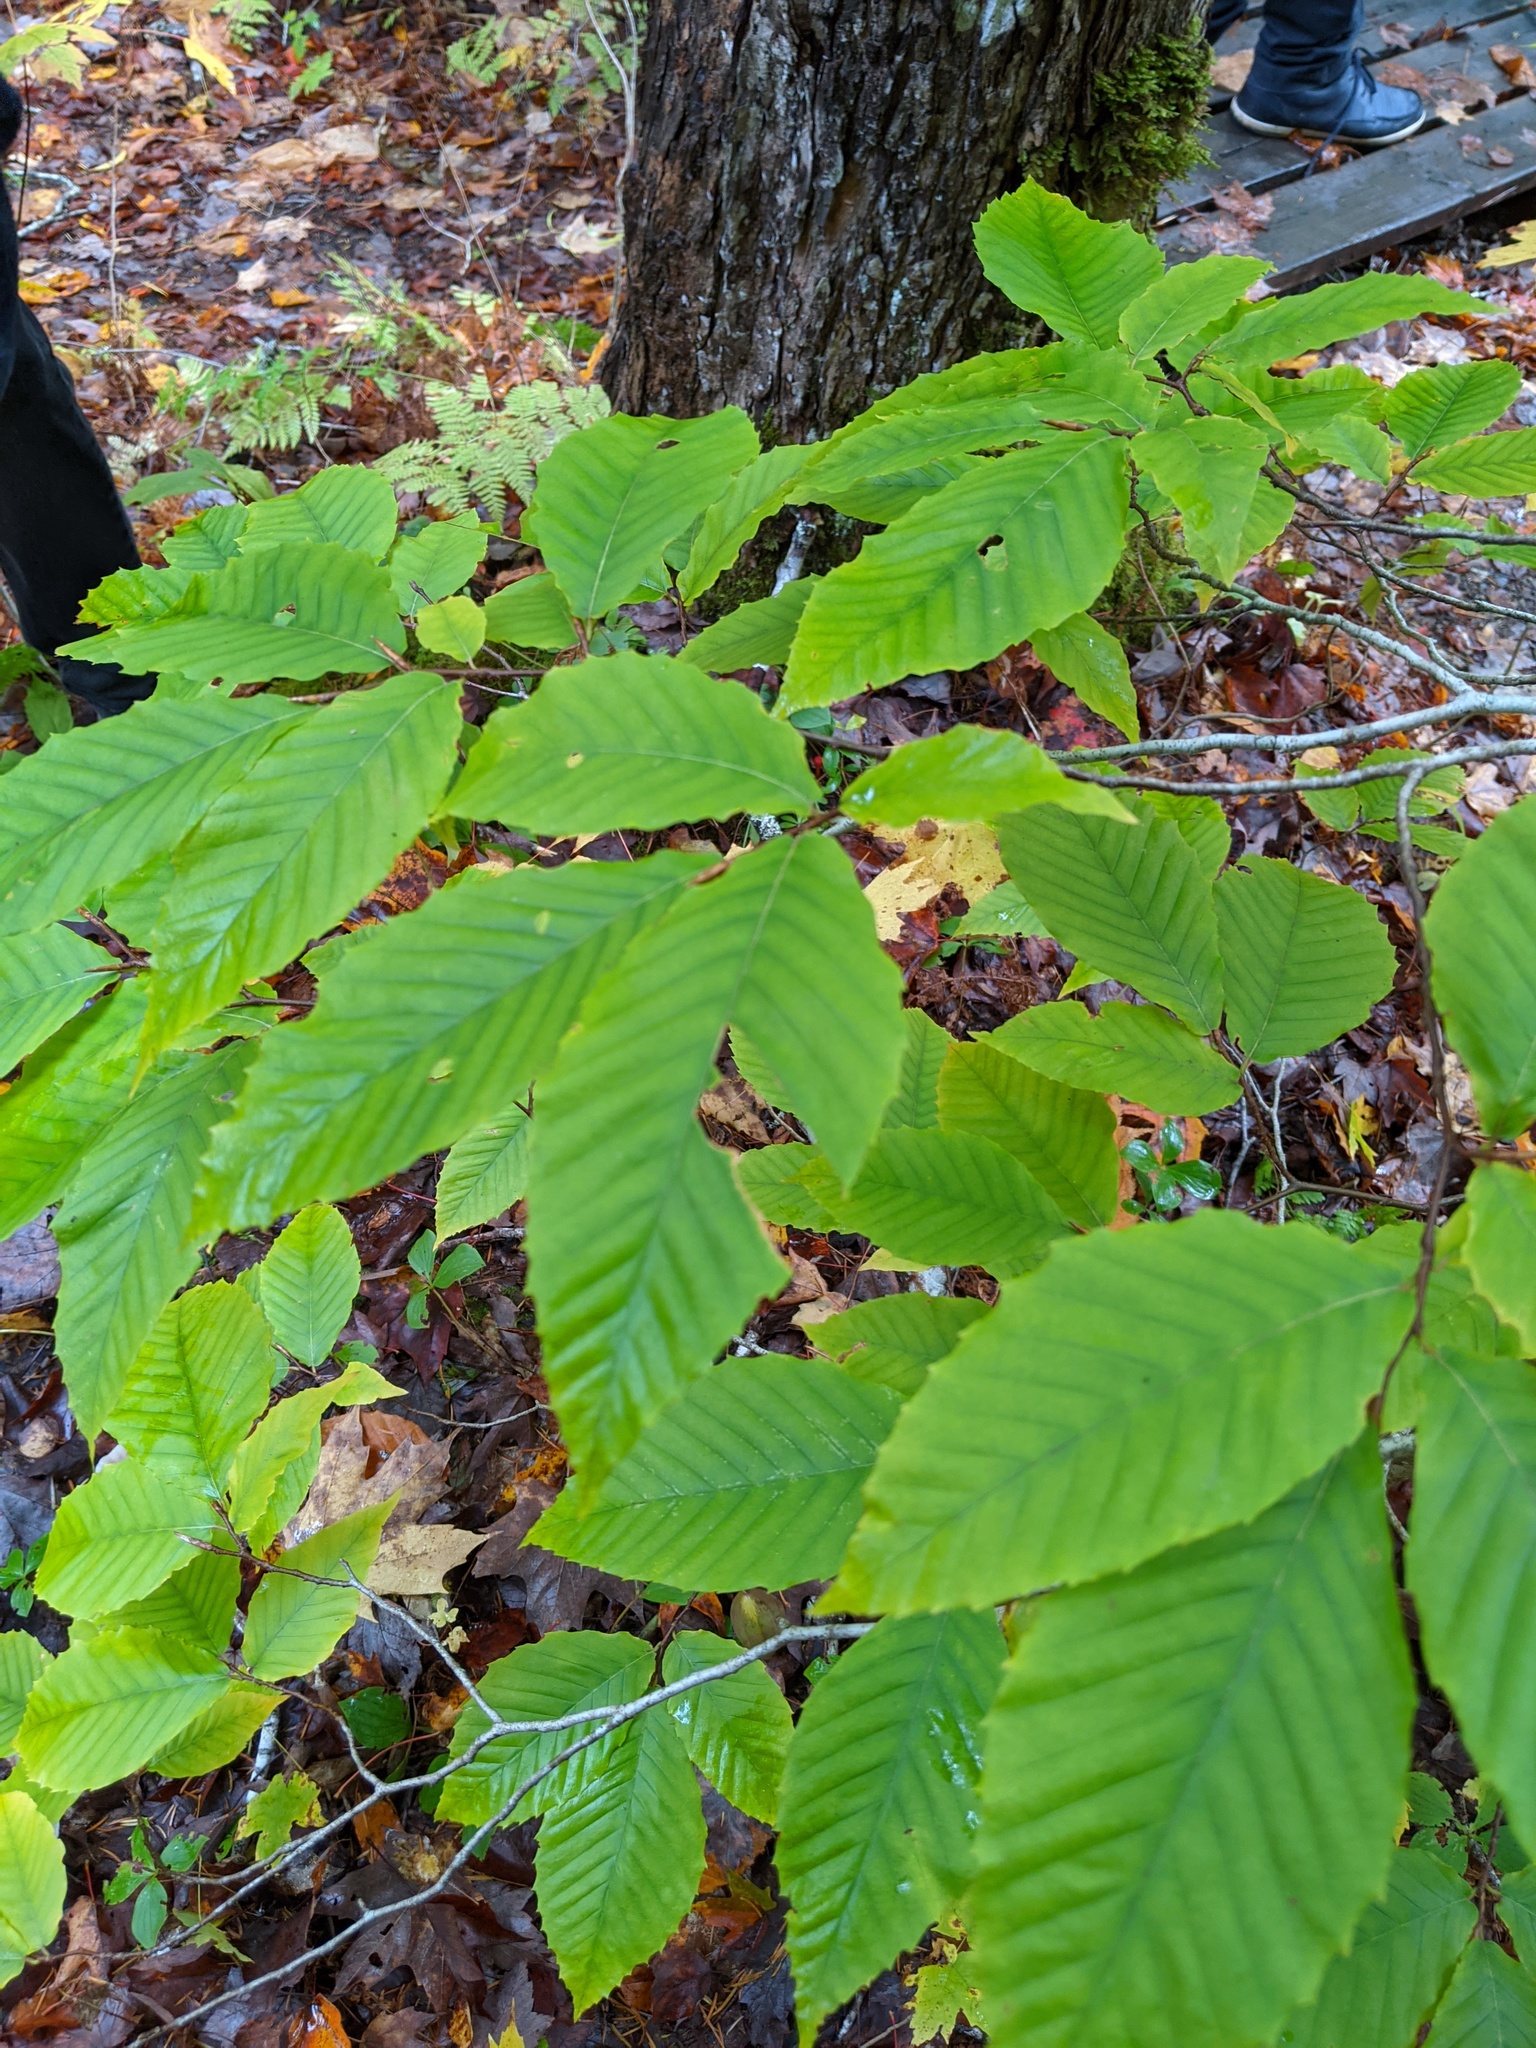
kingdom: Plantae
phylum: Tracheophyta
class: Magnoliopsida
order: Fagales
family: Fagaceae
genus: Fagus
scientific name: Fagus grandifolia
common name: American beech
